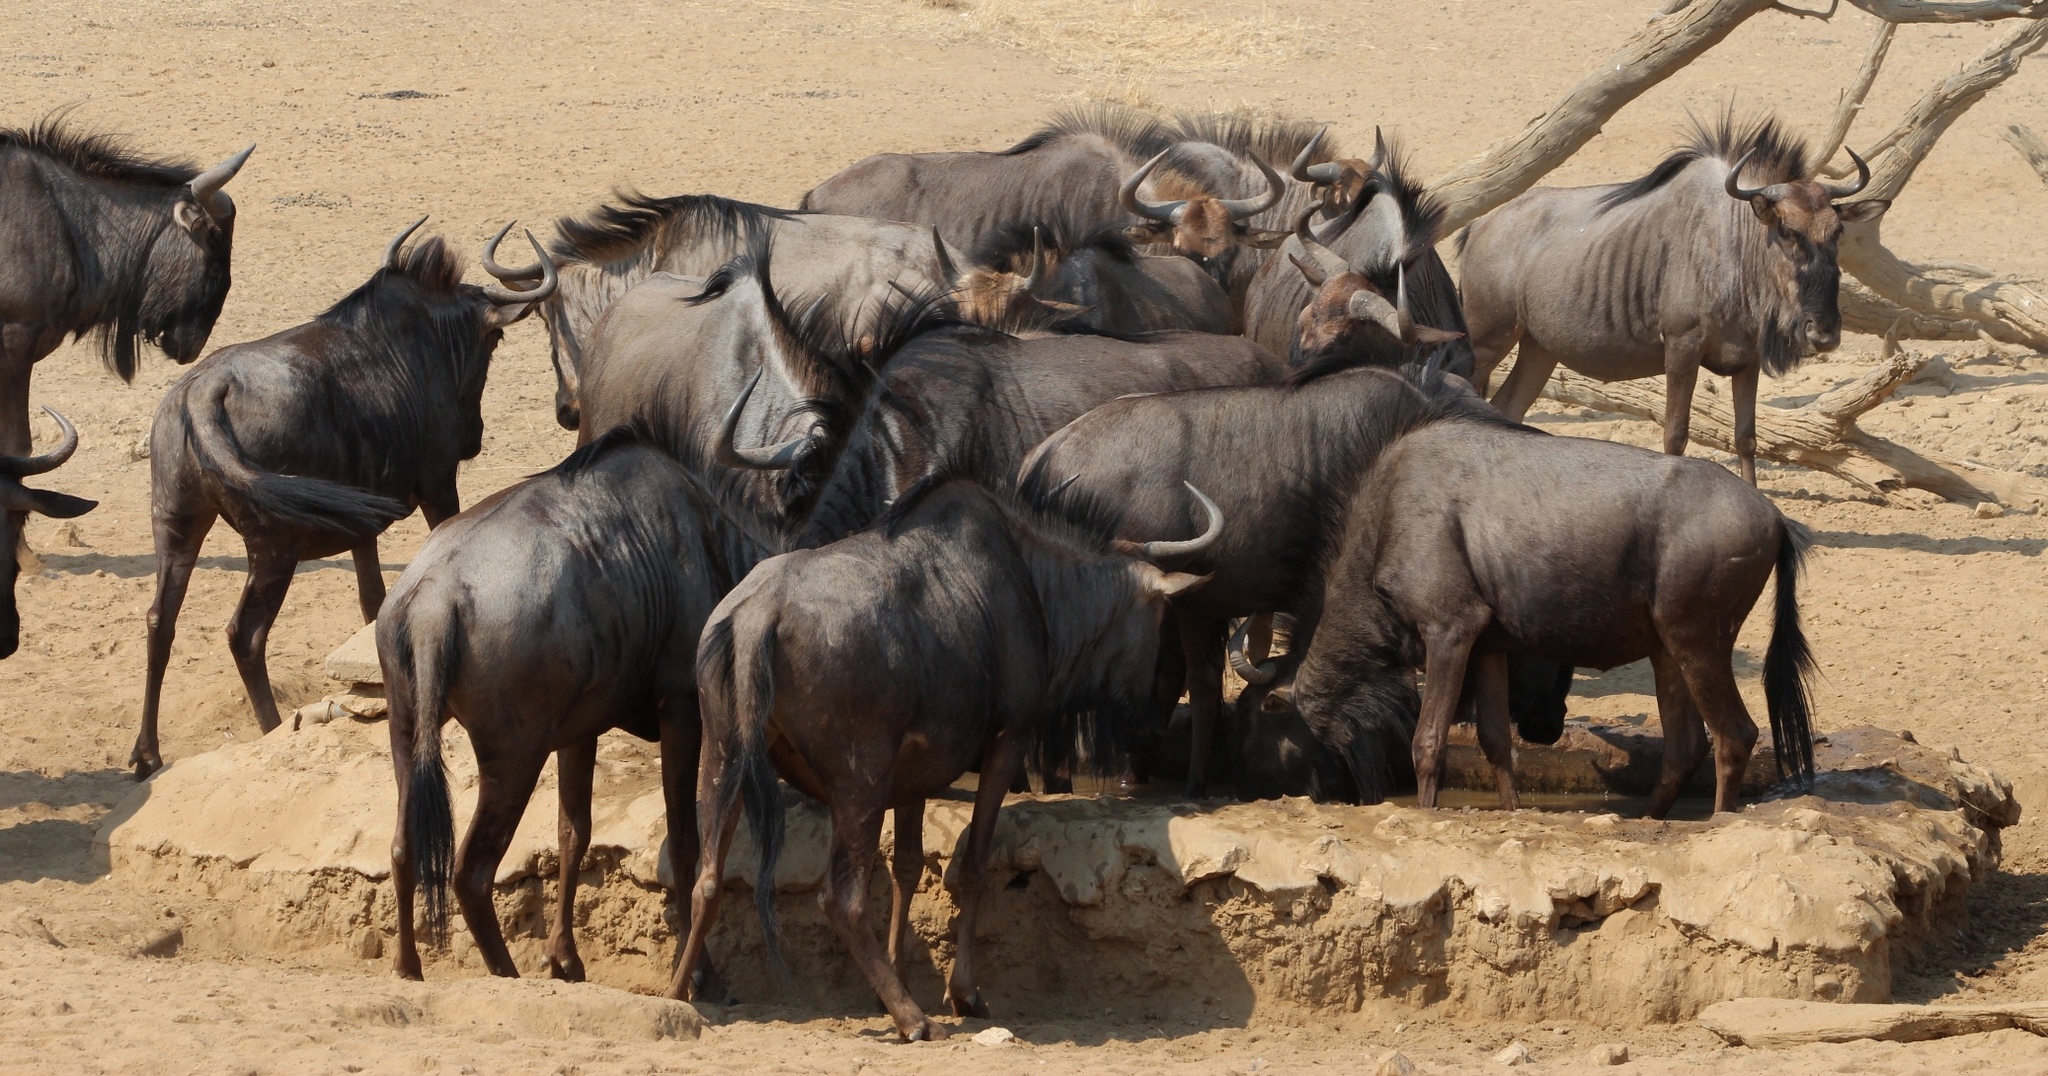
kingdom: Animalia
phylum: Chordata
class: Mammalia
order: Artiodactyla
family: Bovidae
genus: Connochaetes
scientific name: Connochaetes taurinus
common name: Blue wildebeest
